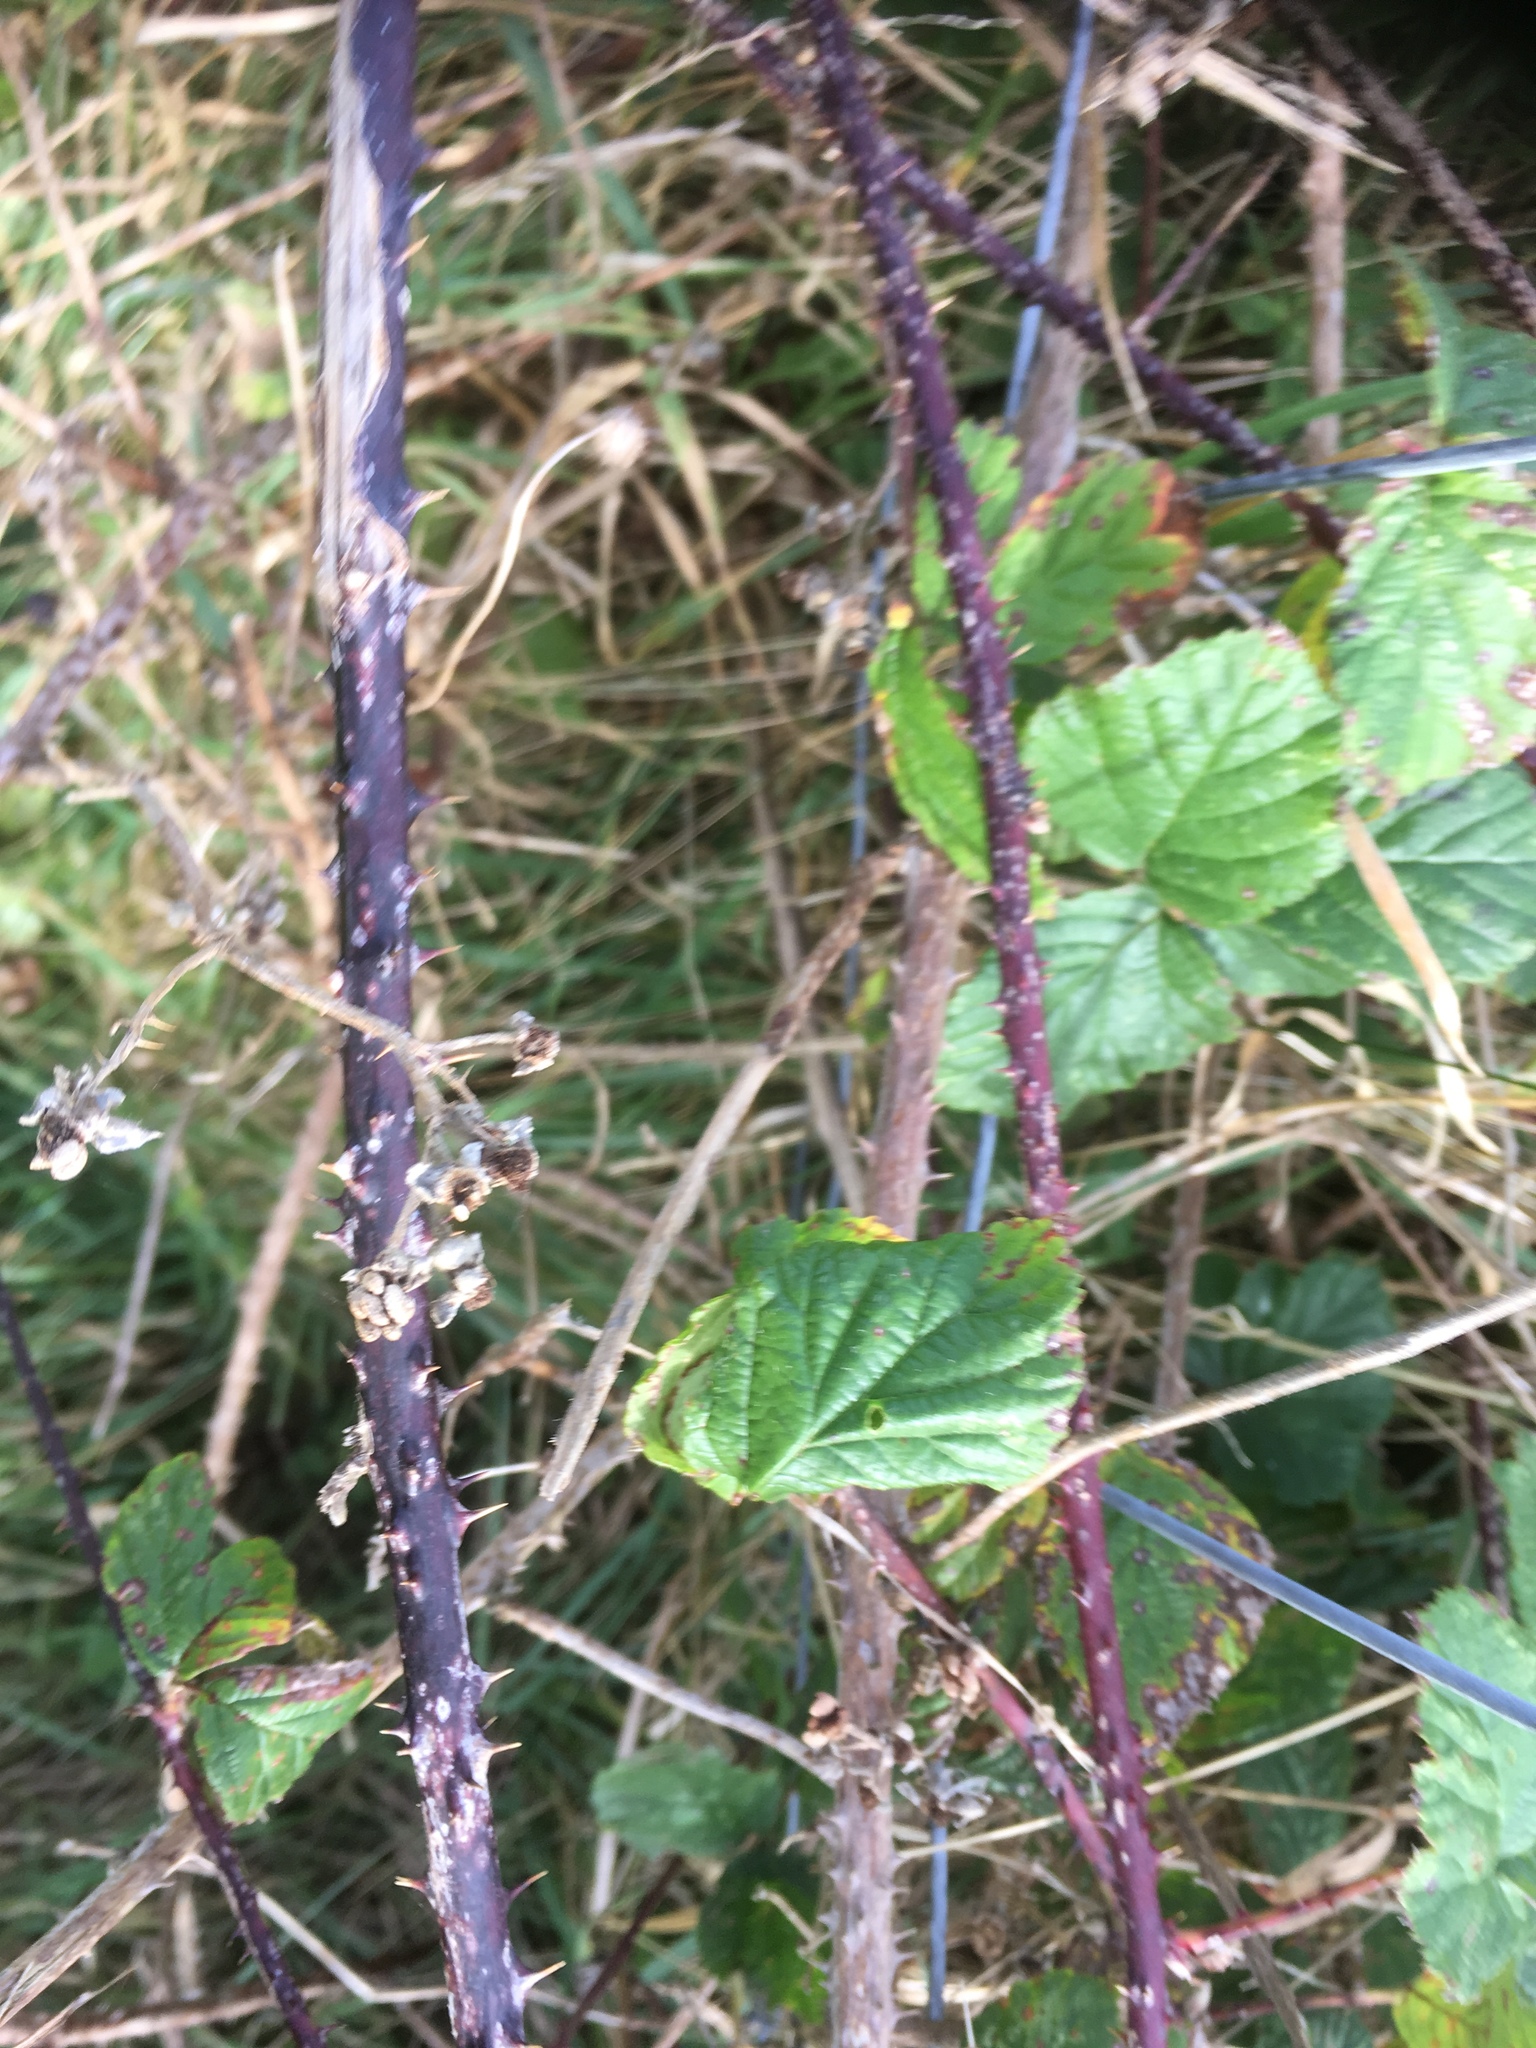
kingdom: Plantae
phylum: Tracheophyta
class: Magnoliopsida
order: Rosales
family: Rosaceae
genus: Rubus
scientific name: Rubus
